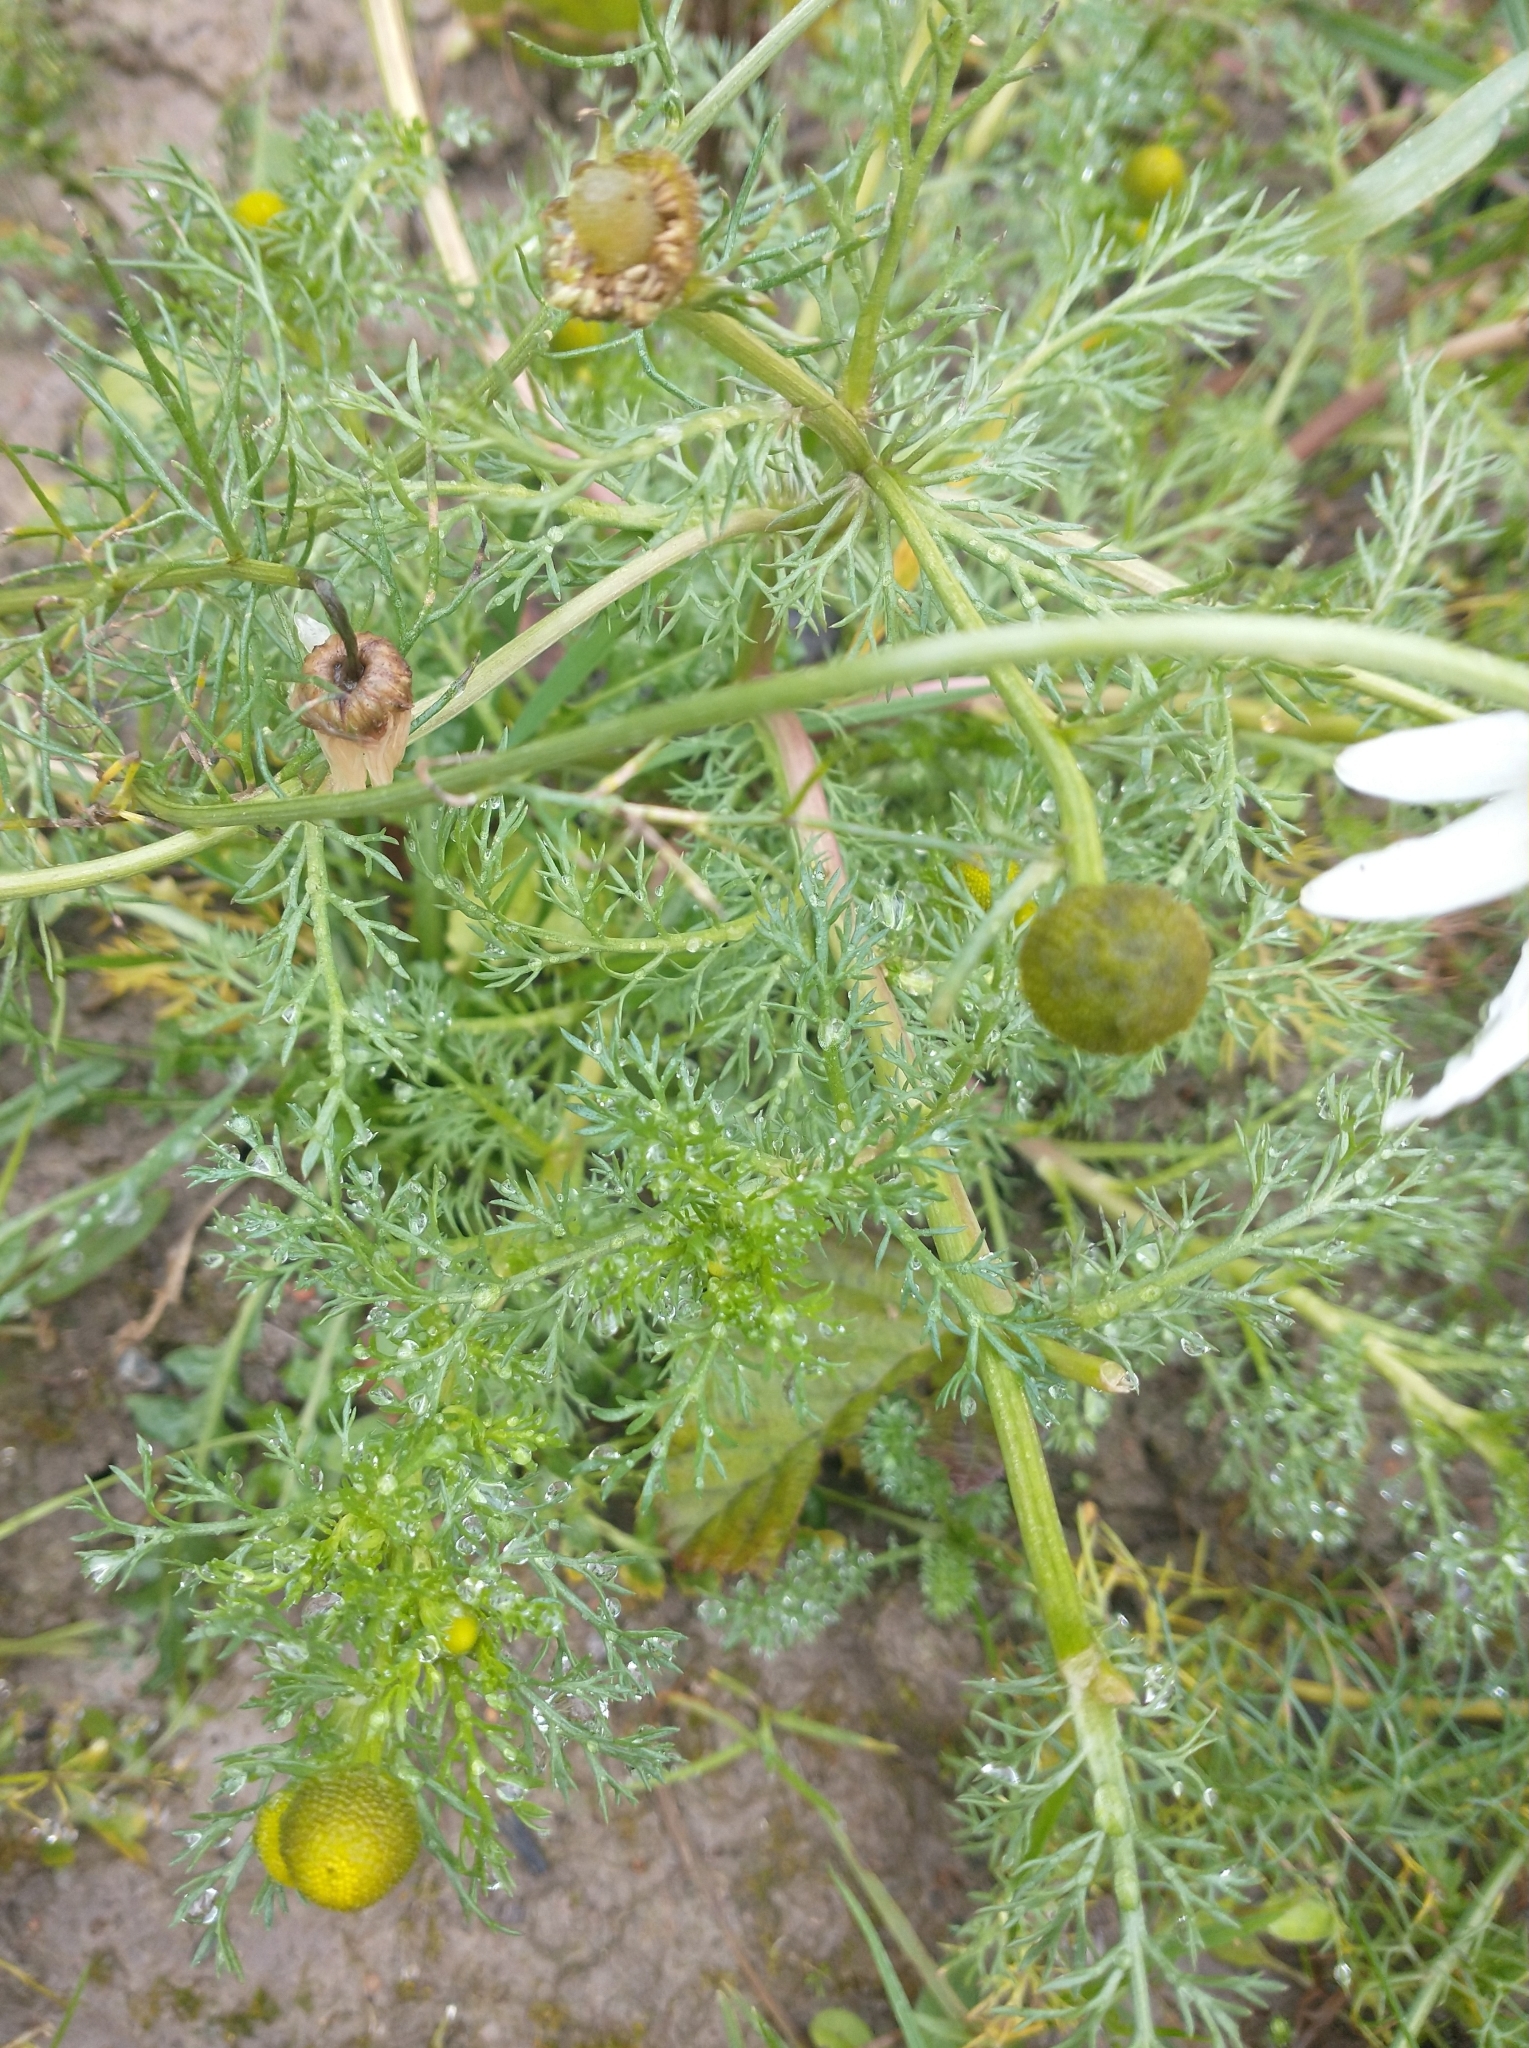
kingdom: Plantae
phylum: Tracheophyta
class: Magnoliopsida
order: Asterales
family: Asteraceae
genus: Tripleurospermum
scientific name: Tripleurospermum inodorum
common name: Scentless mayweed
